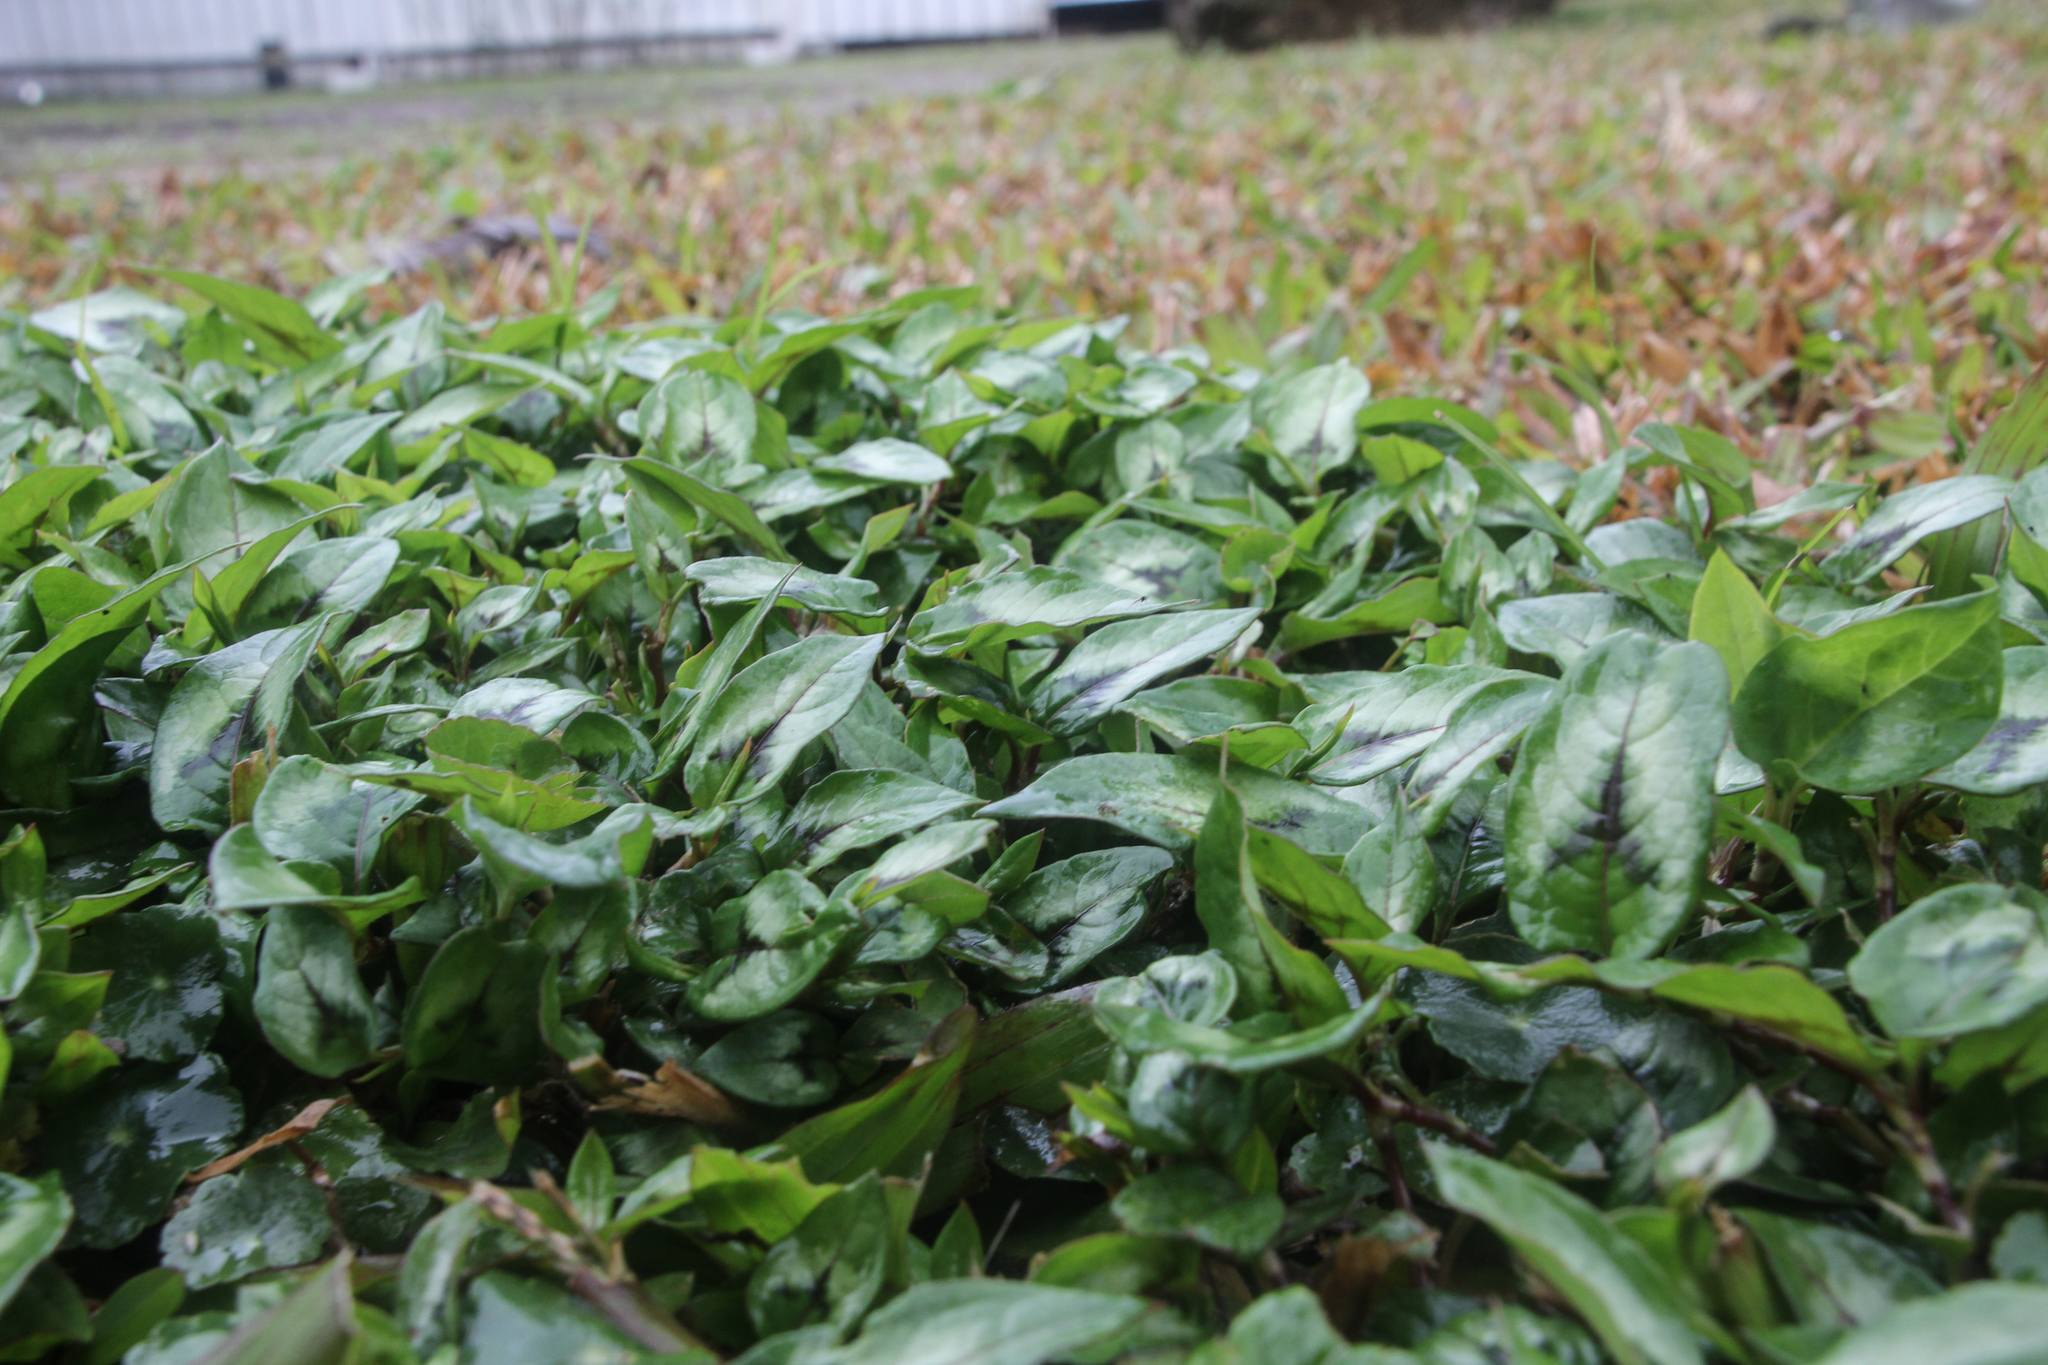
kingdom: Plantae
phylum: Tracheophyta
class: Magnoliopsida
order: Caryophyllales
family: Polygonaceae
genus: Persicaria
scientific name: Persicaria chinensis
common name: Chinese knotweed
